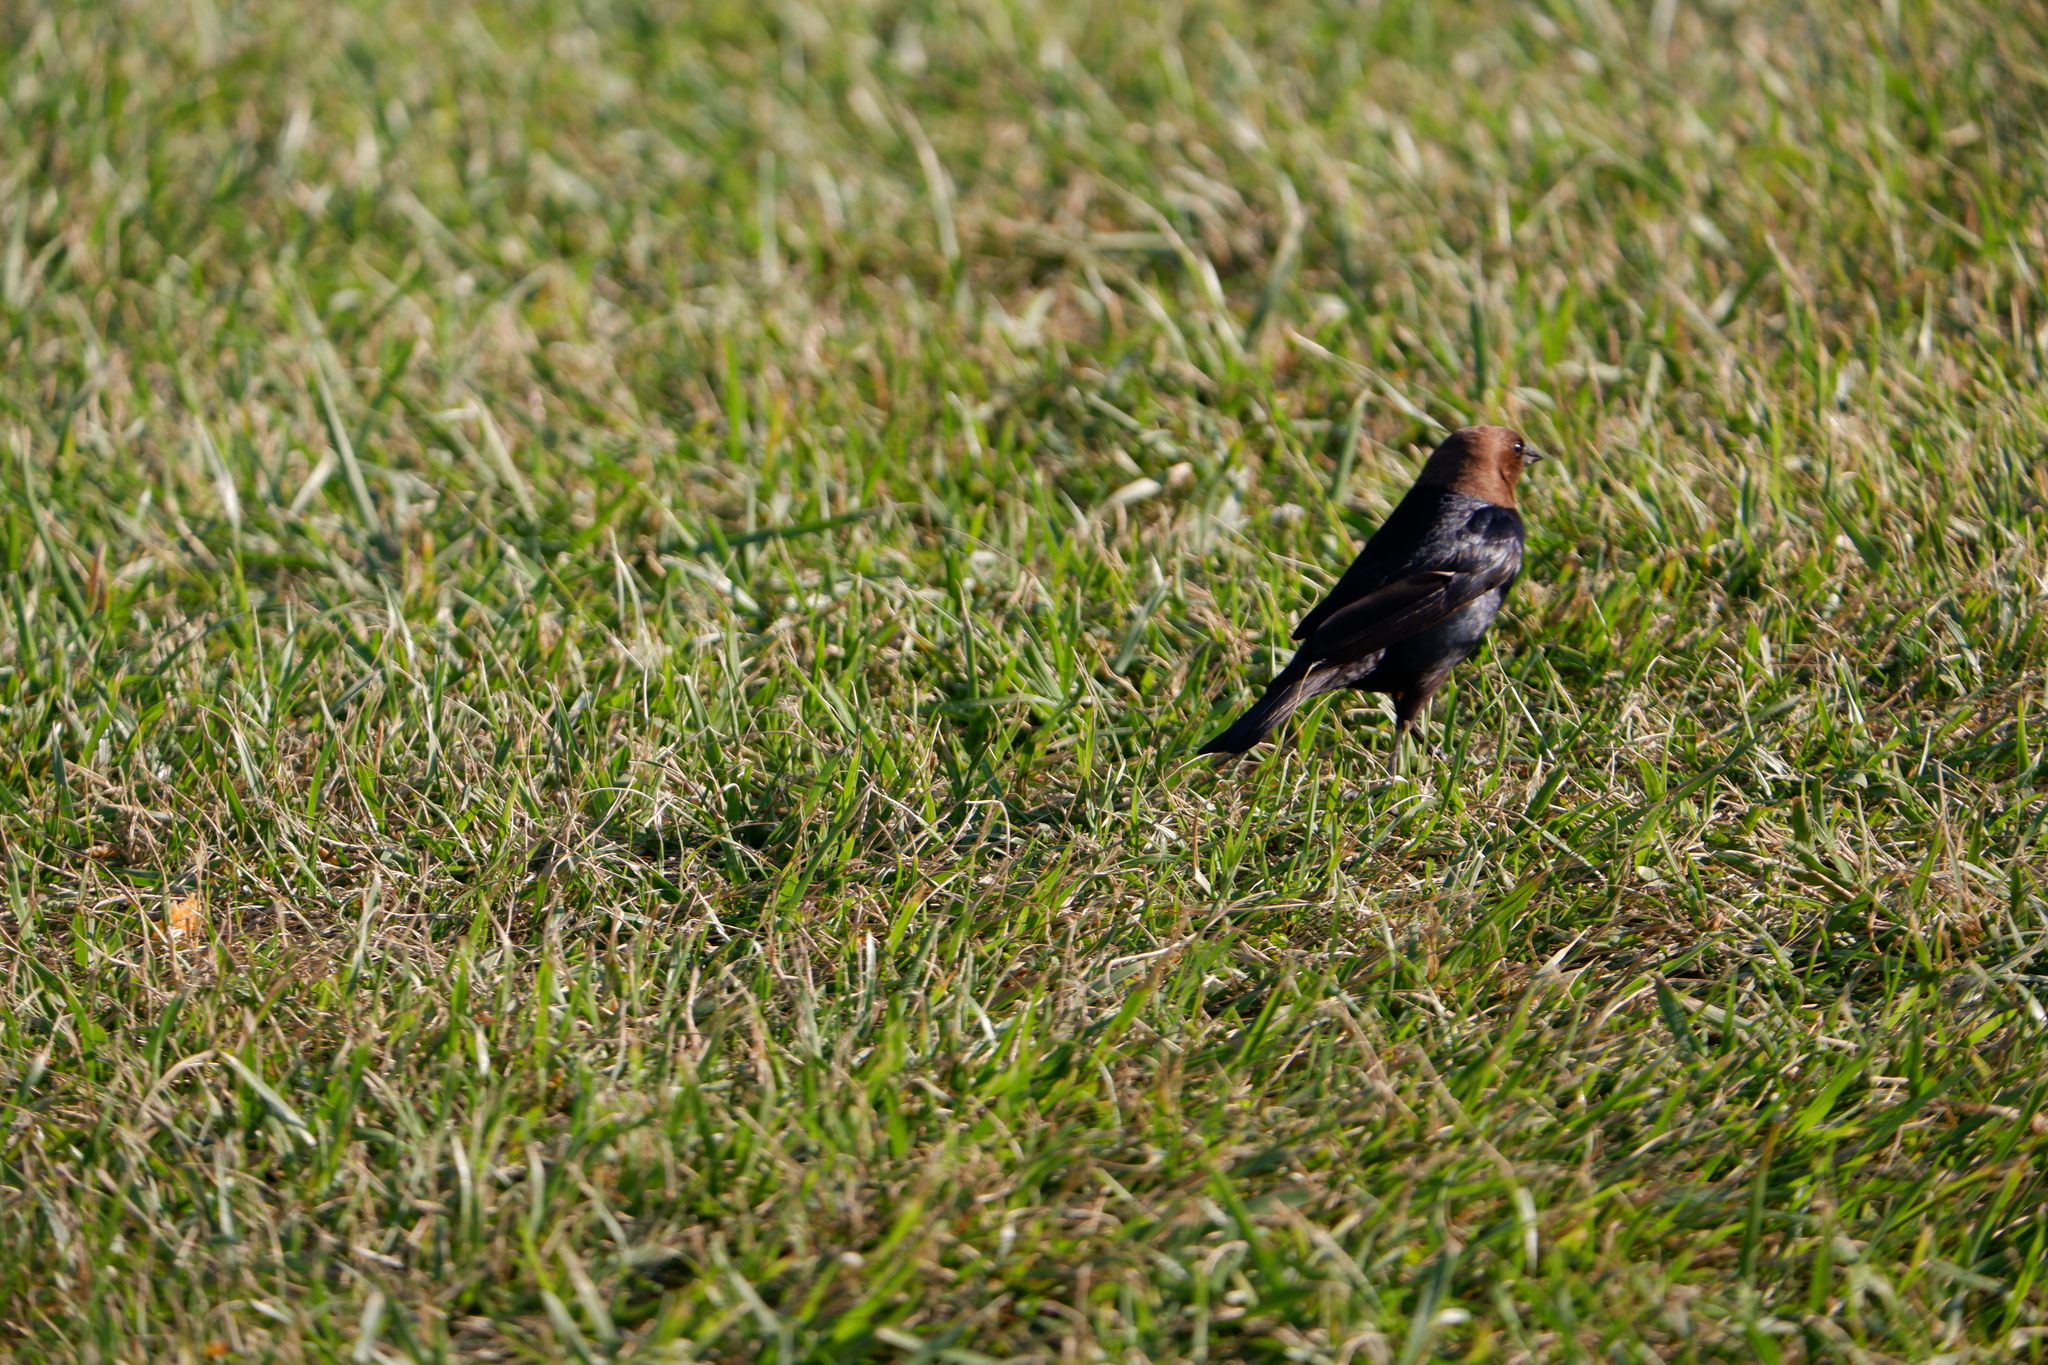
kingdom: Animalia
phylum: Chordata
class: Aves
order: Passeriformes
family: Icteridae
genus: Molothrus
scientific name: Molothrus ater
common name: Brown-headed cowbird
